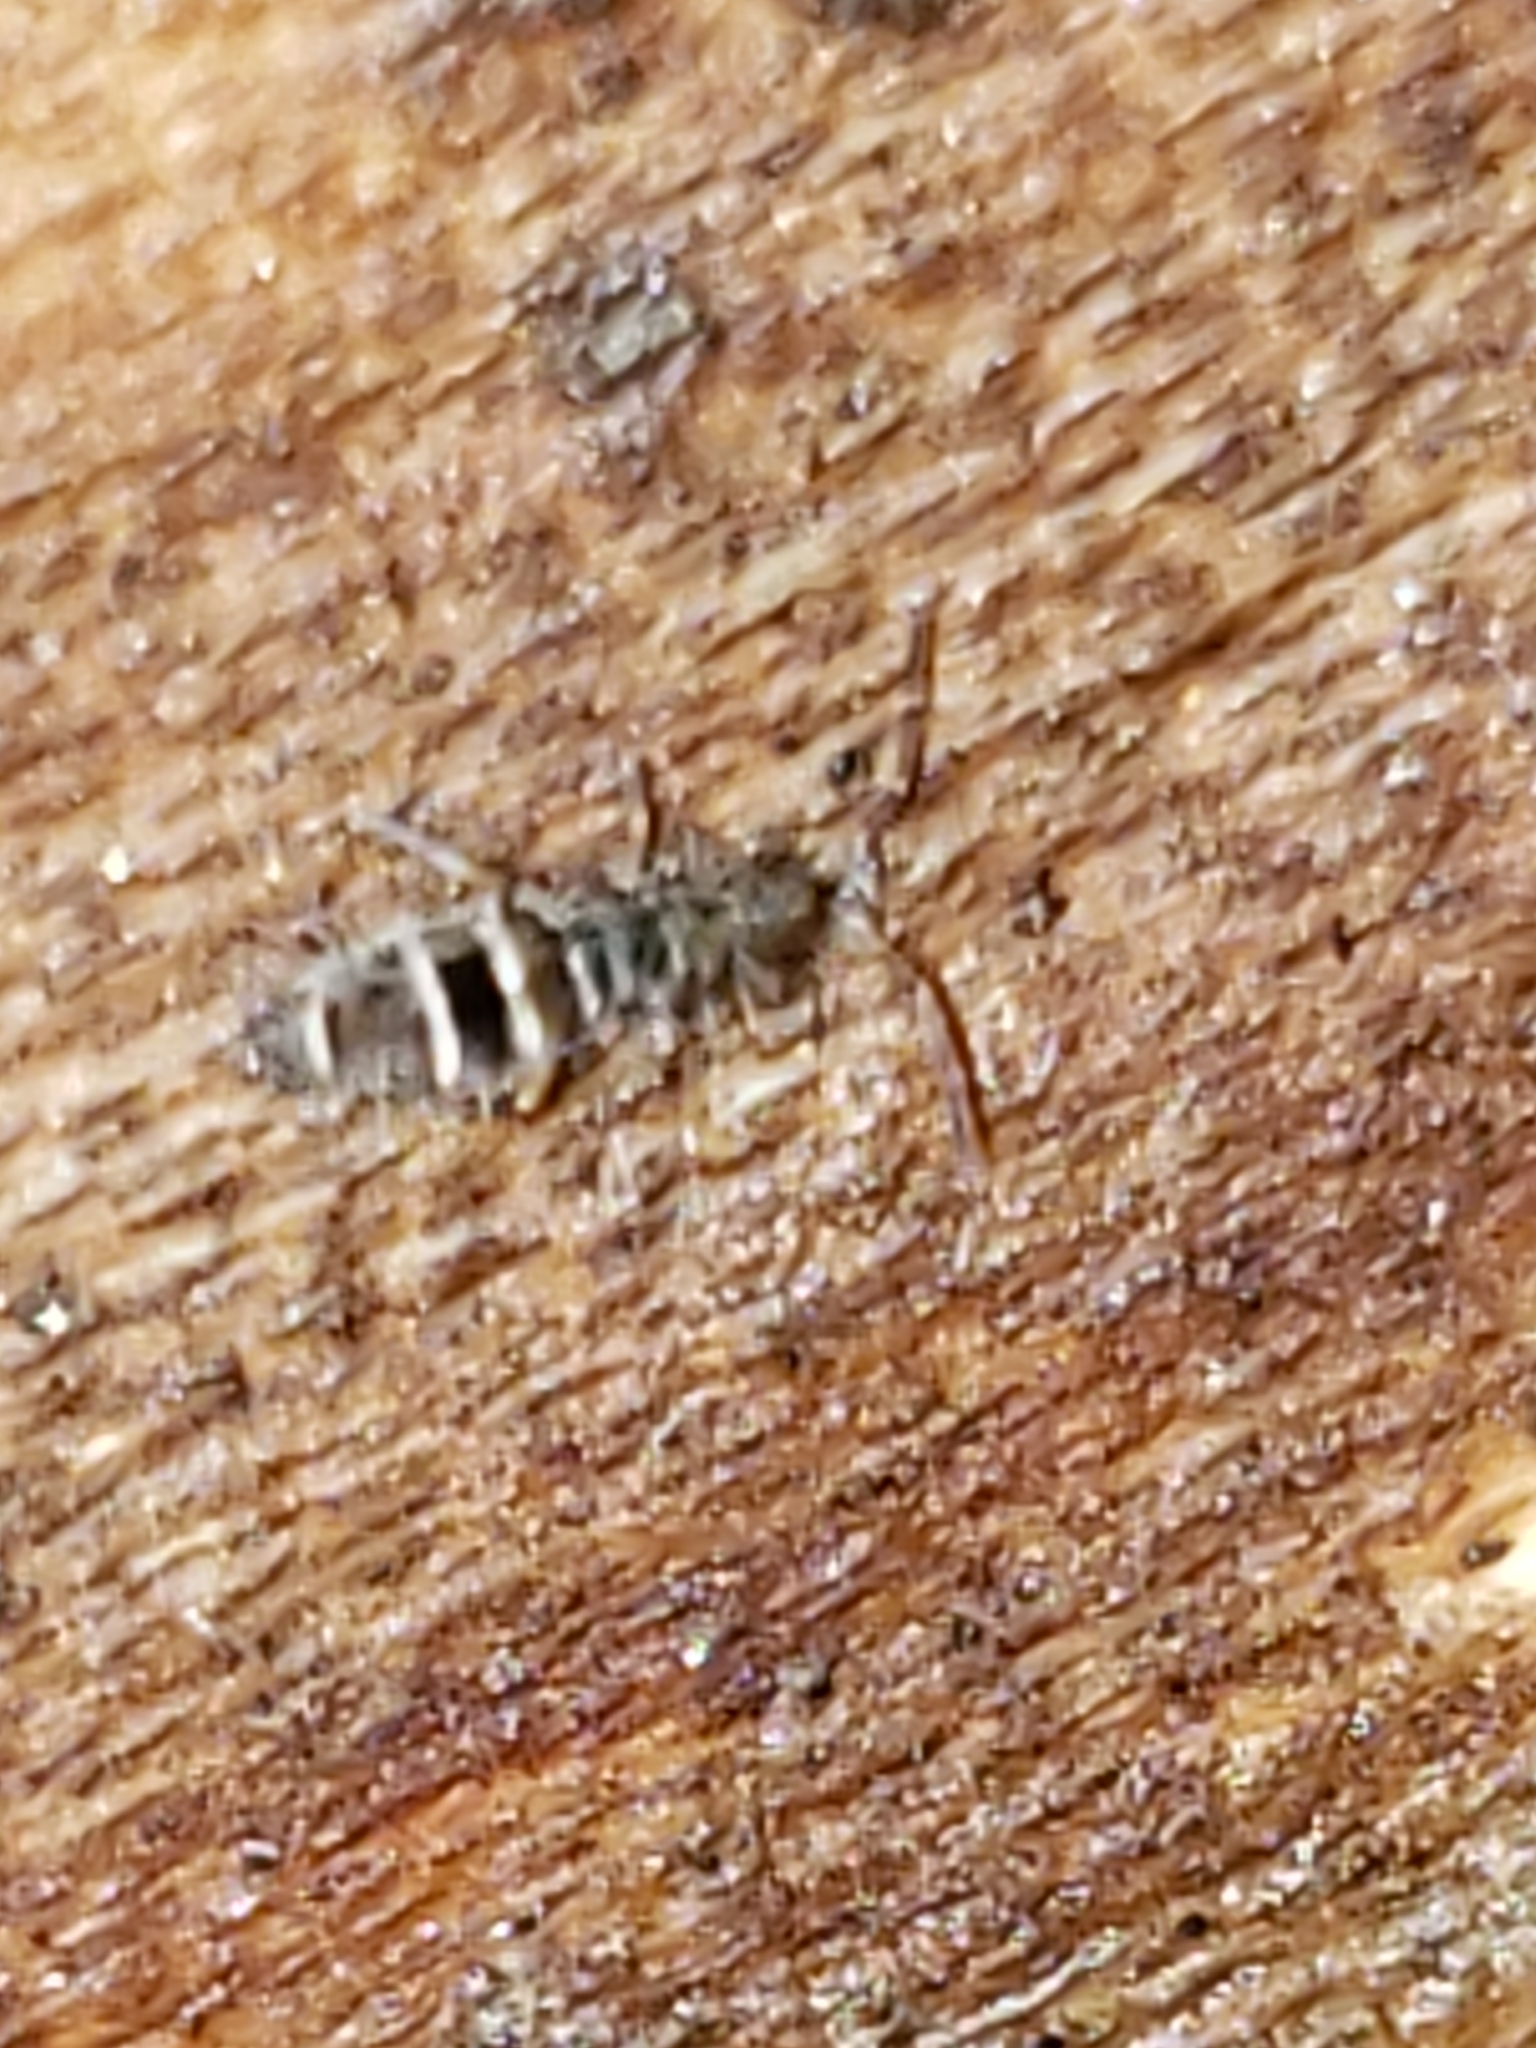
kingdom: Animalia
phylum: Arthropoda
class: Collembola
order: Entomobryomorpha
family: Orchesellidae
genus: Orchesella
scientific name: Orchesella celsa
